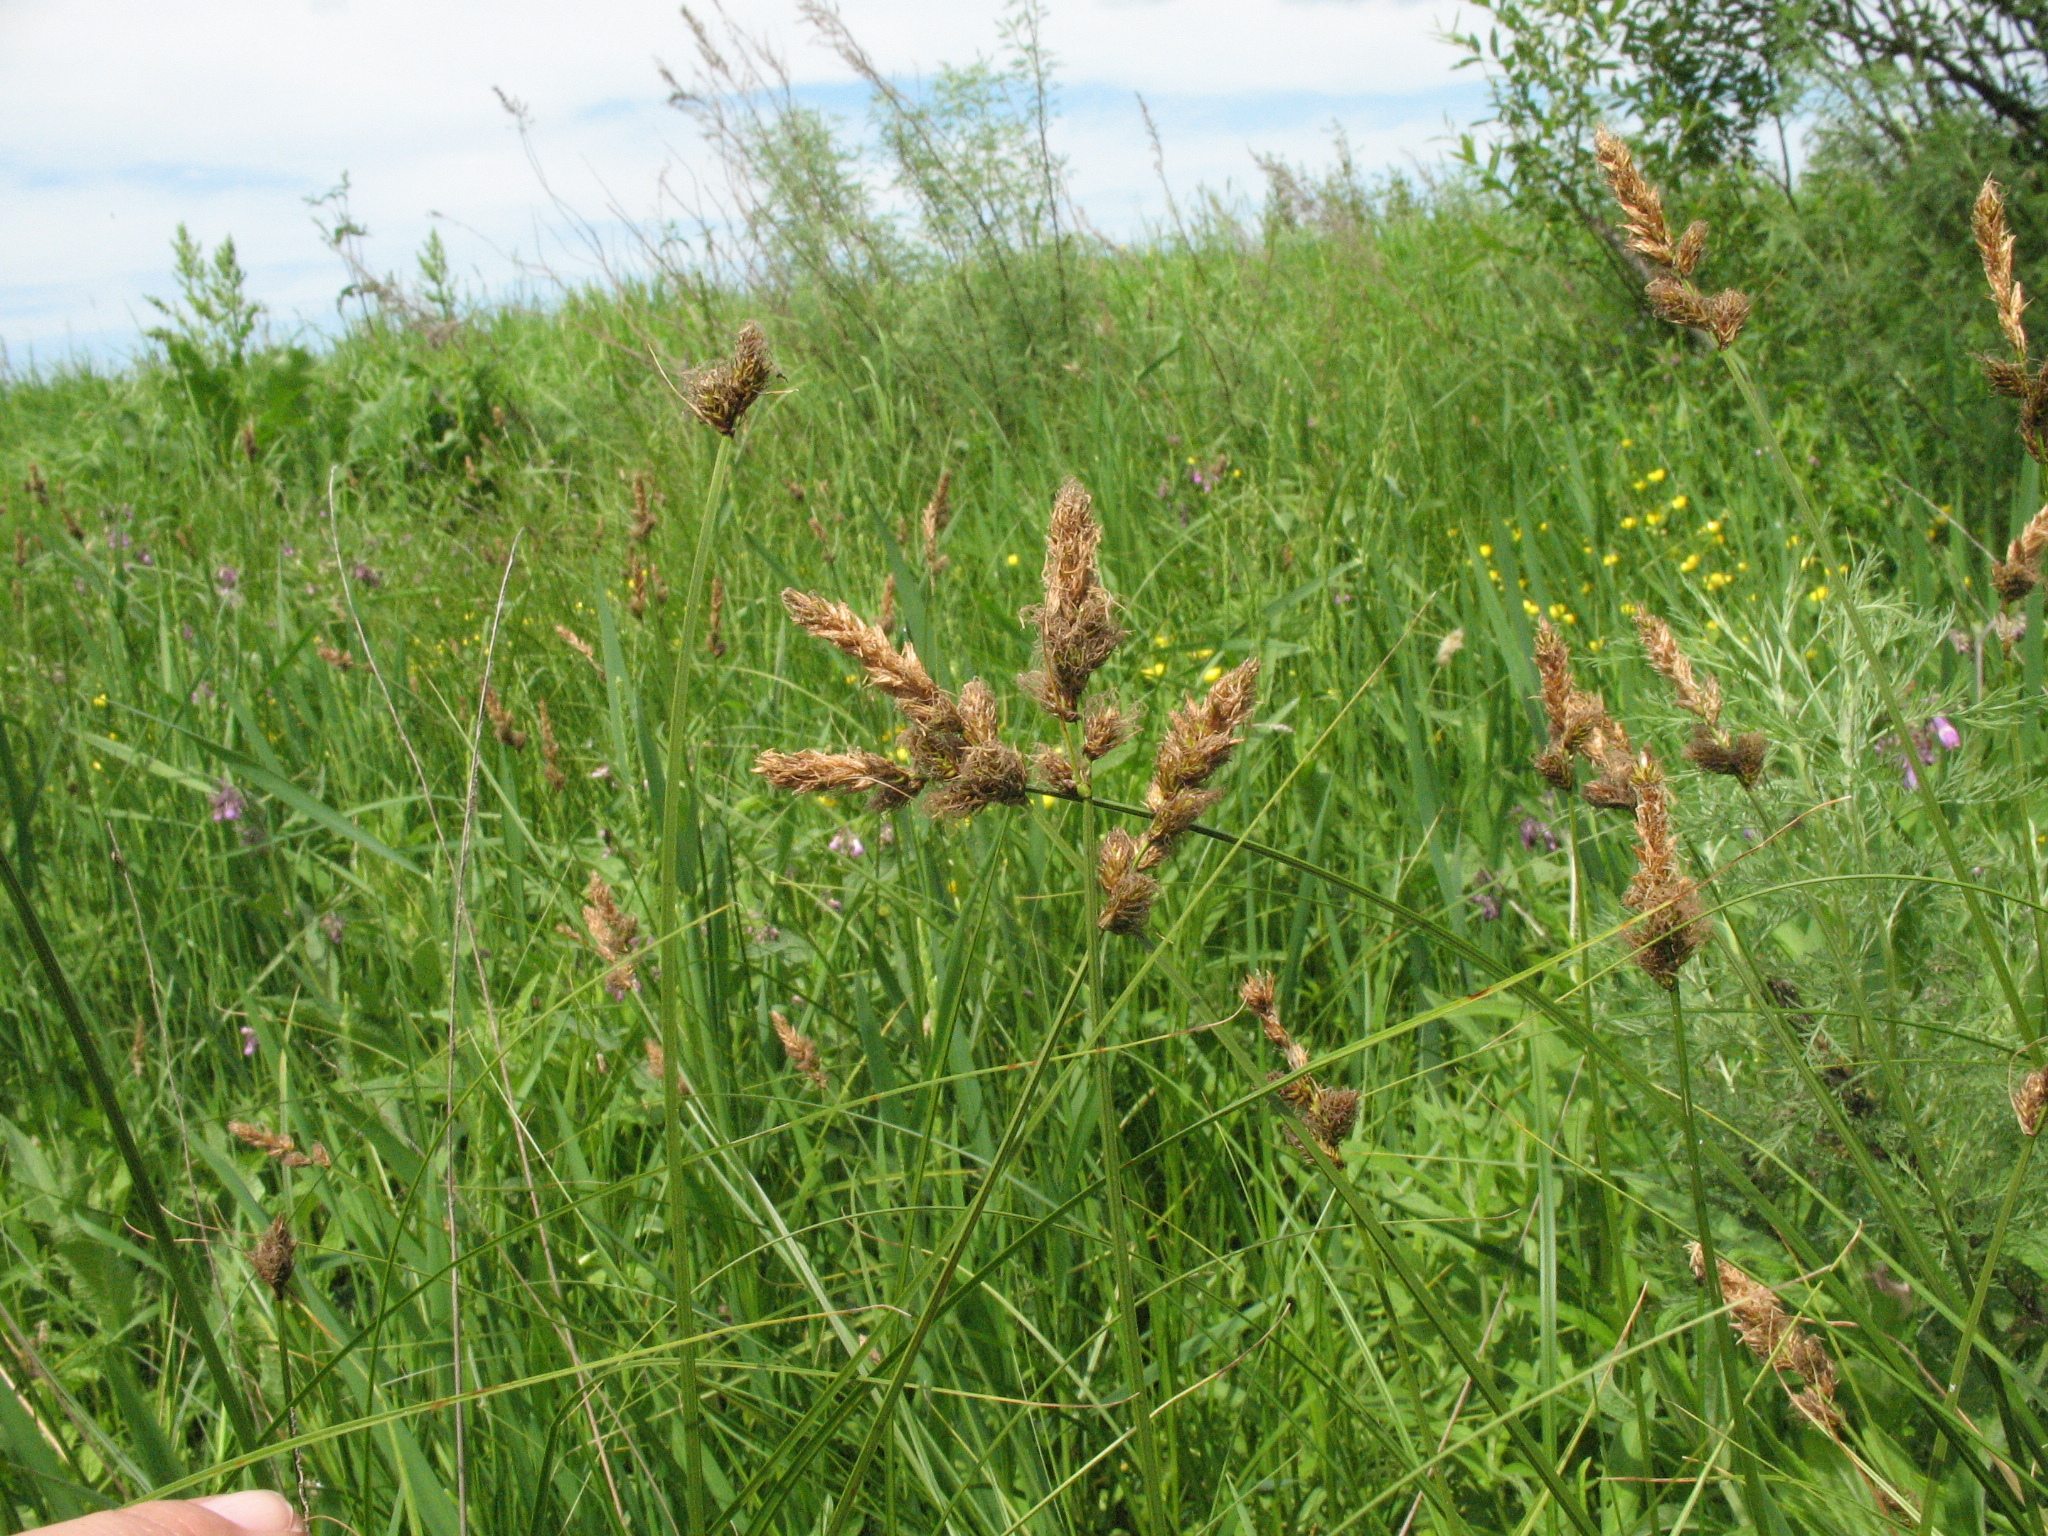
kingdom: Plantae
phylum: Tracheophyta
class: Liliopsida
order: Poales
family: Cyperaceae
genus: Carex
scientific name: Carex disticha
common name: Brown sedge
